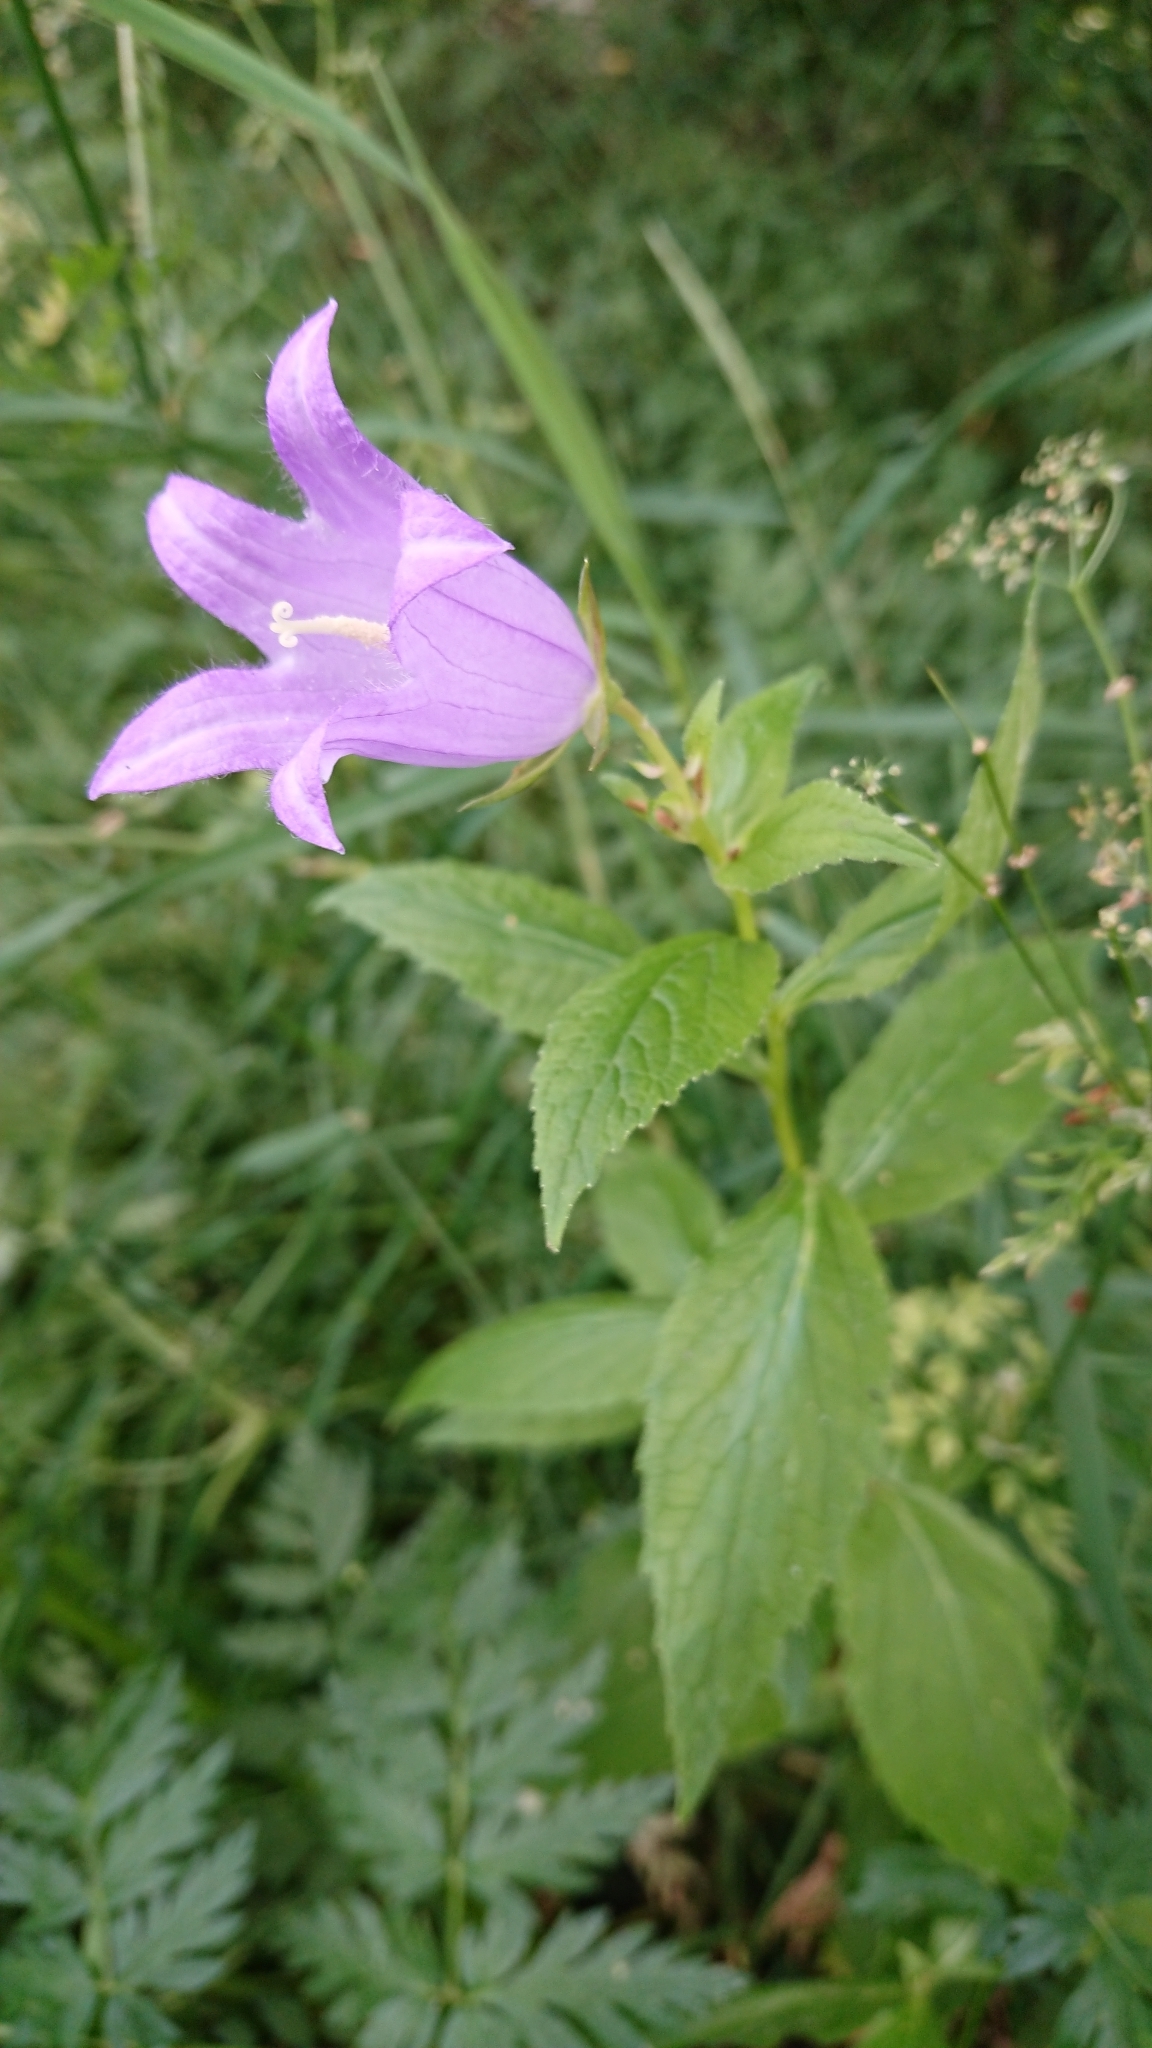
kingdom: Plantae
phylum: Tracheophyta
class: Magnoliopsida
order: Asterales
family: Campanulaceae
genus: Campanula
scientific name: Campanula latifolia
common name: Giant bellflower
